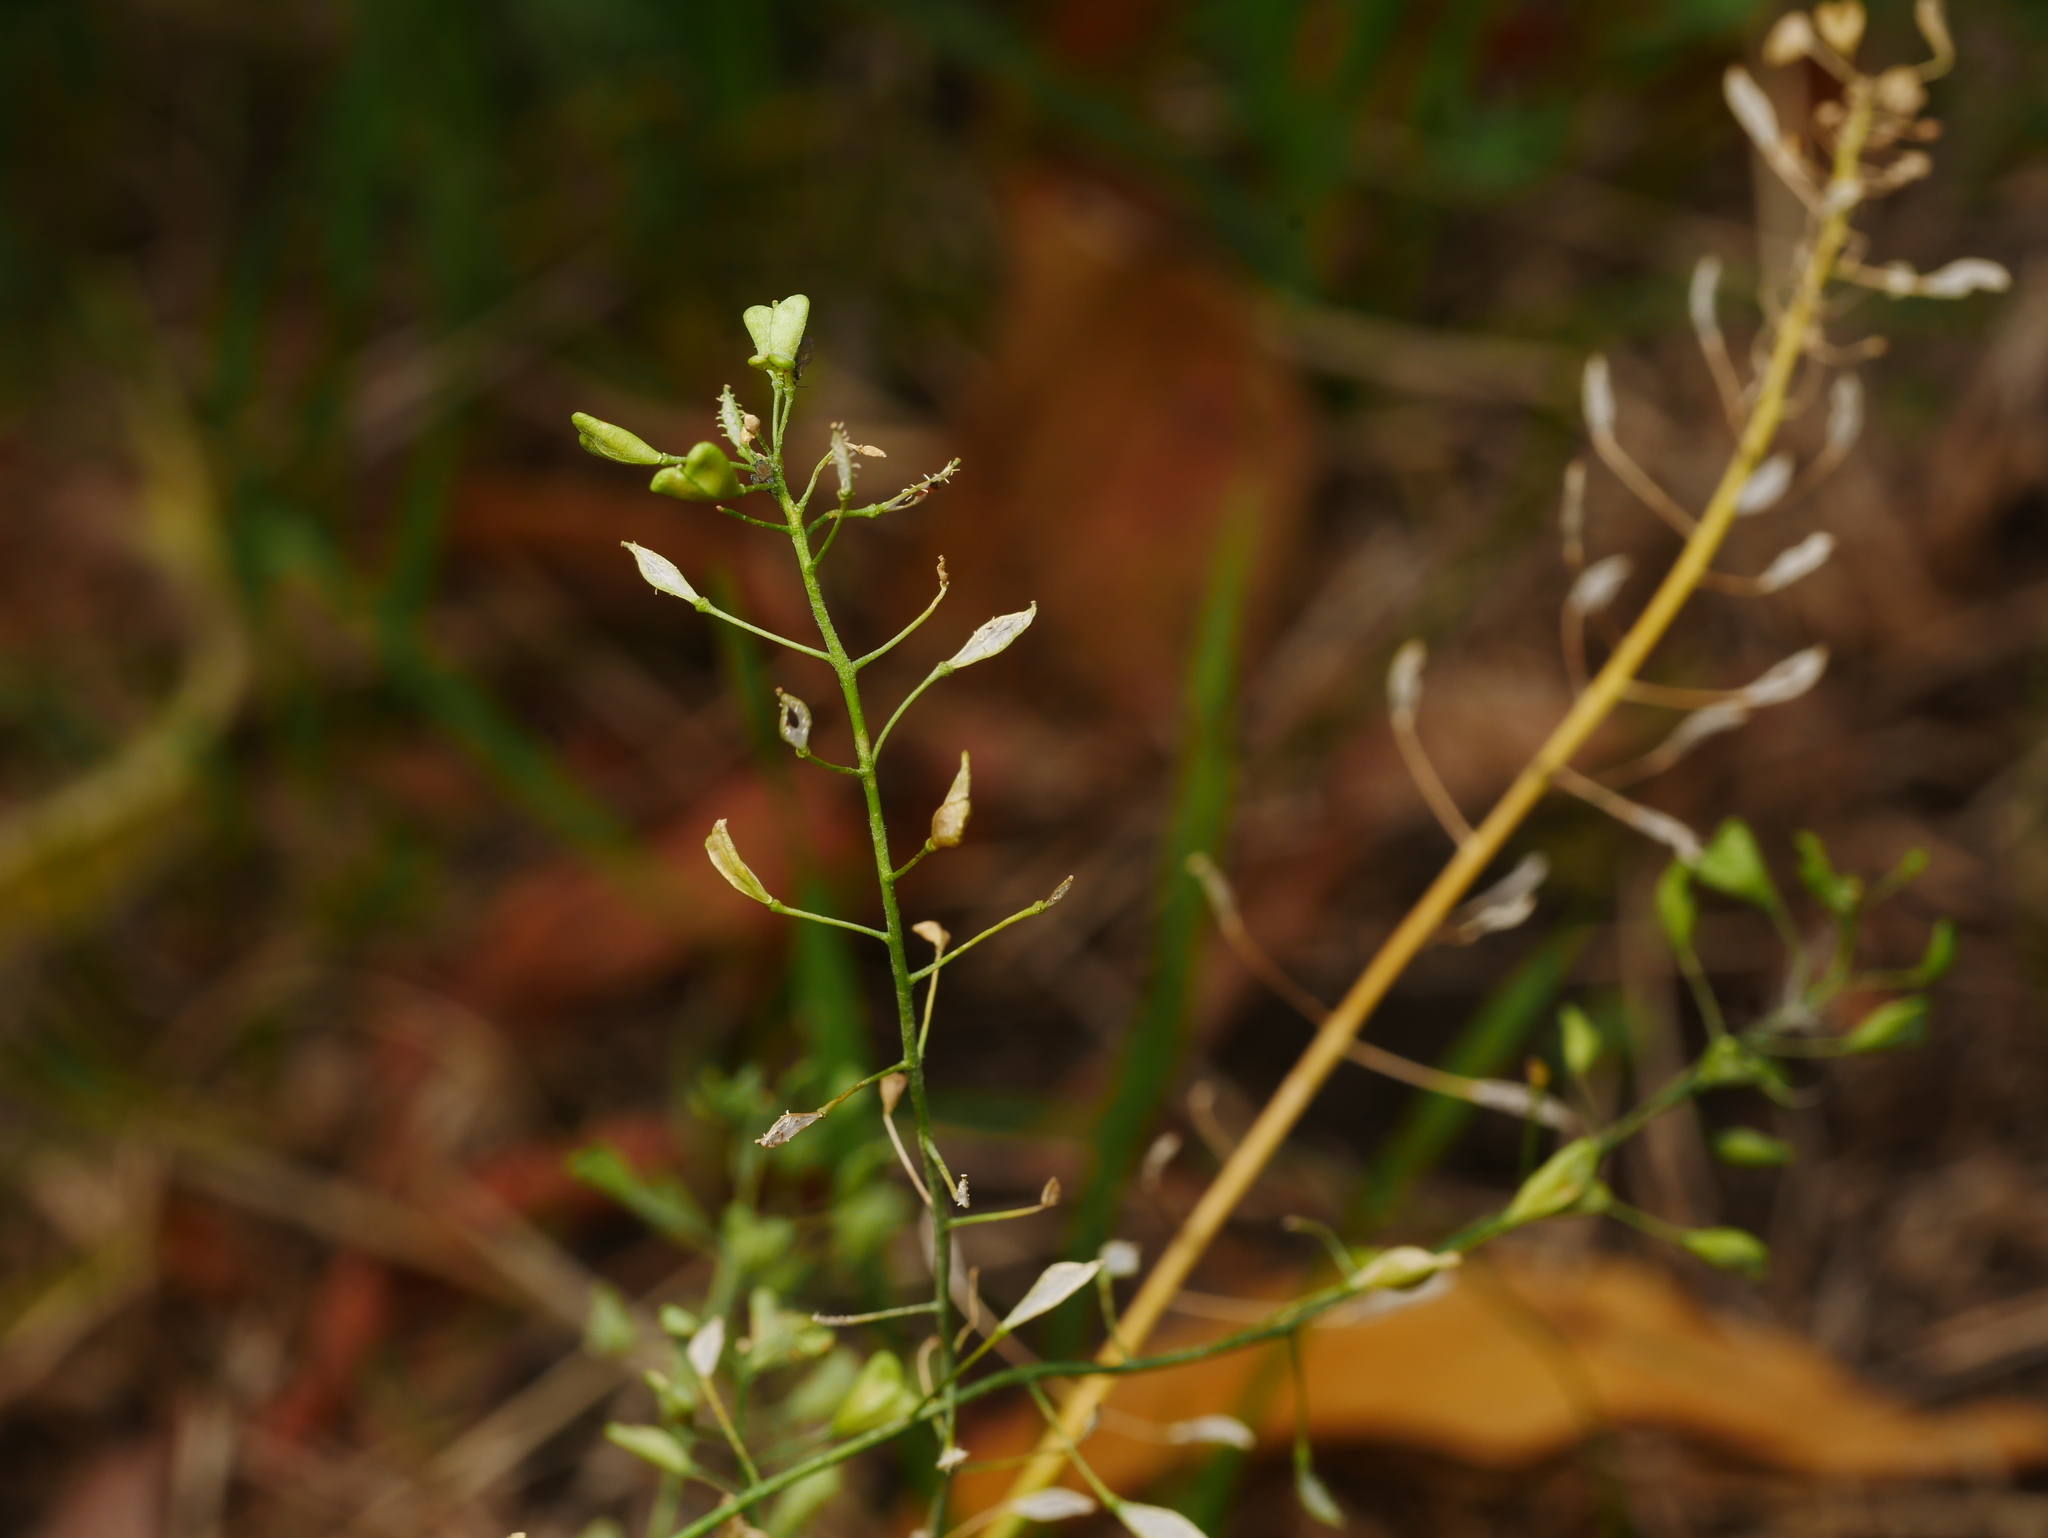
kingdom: Plantae
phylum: Tracheophyta
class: Magnoliopsida
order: Brassicales
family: Brassicaceae
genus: Capsella
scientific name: Capsella bursa-pastoris
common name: Shepherd's purse
